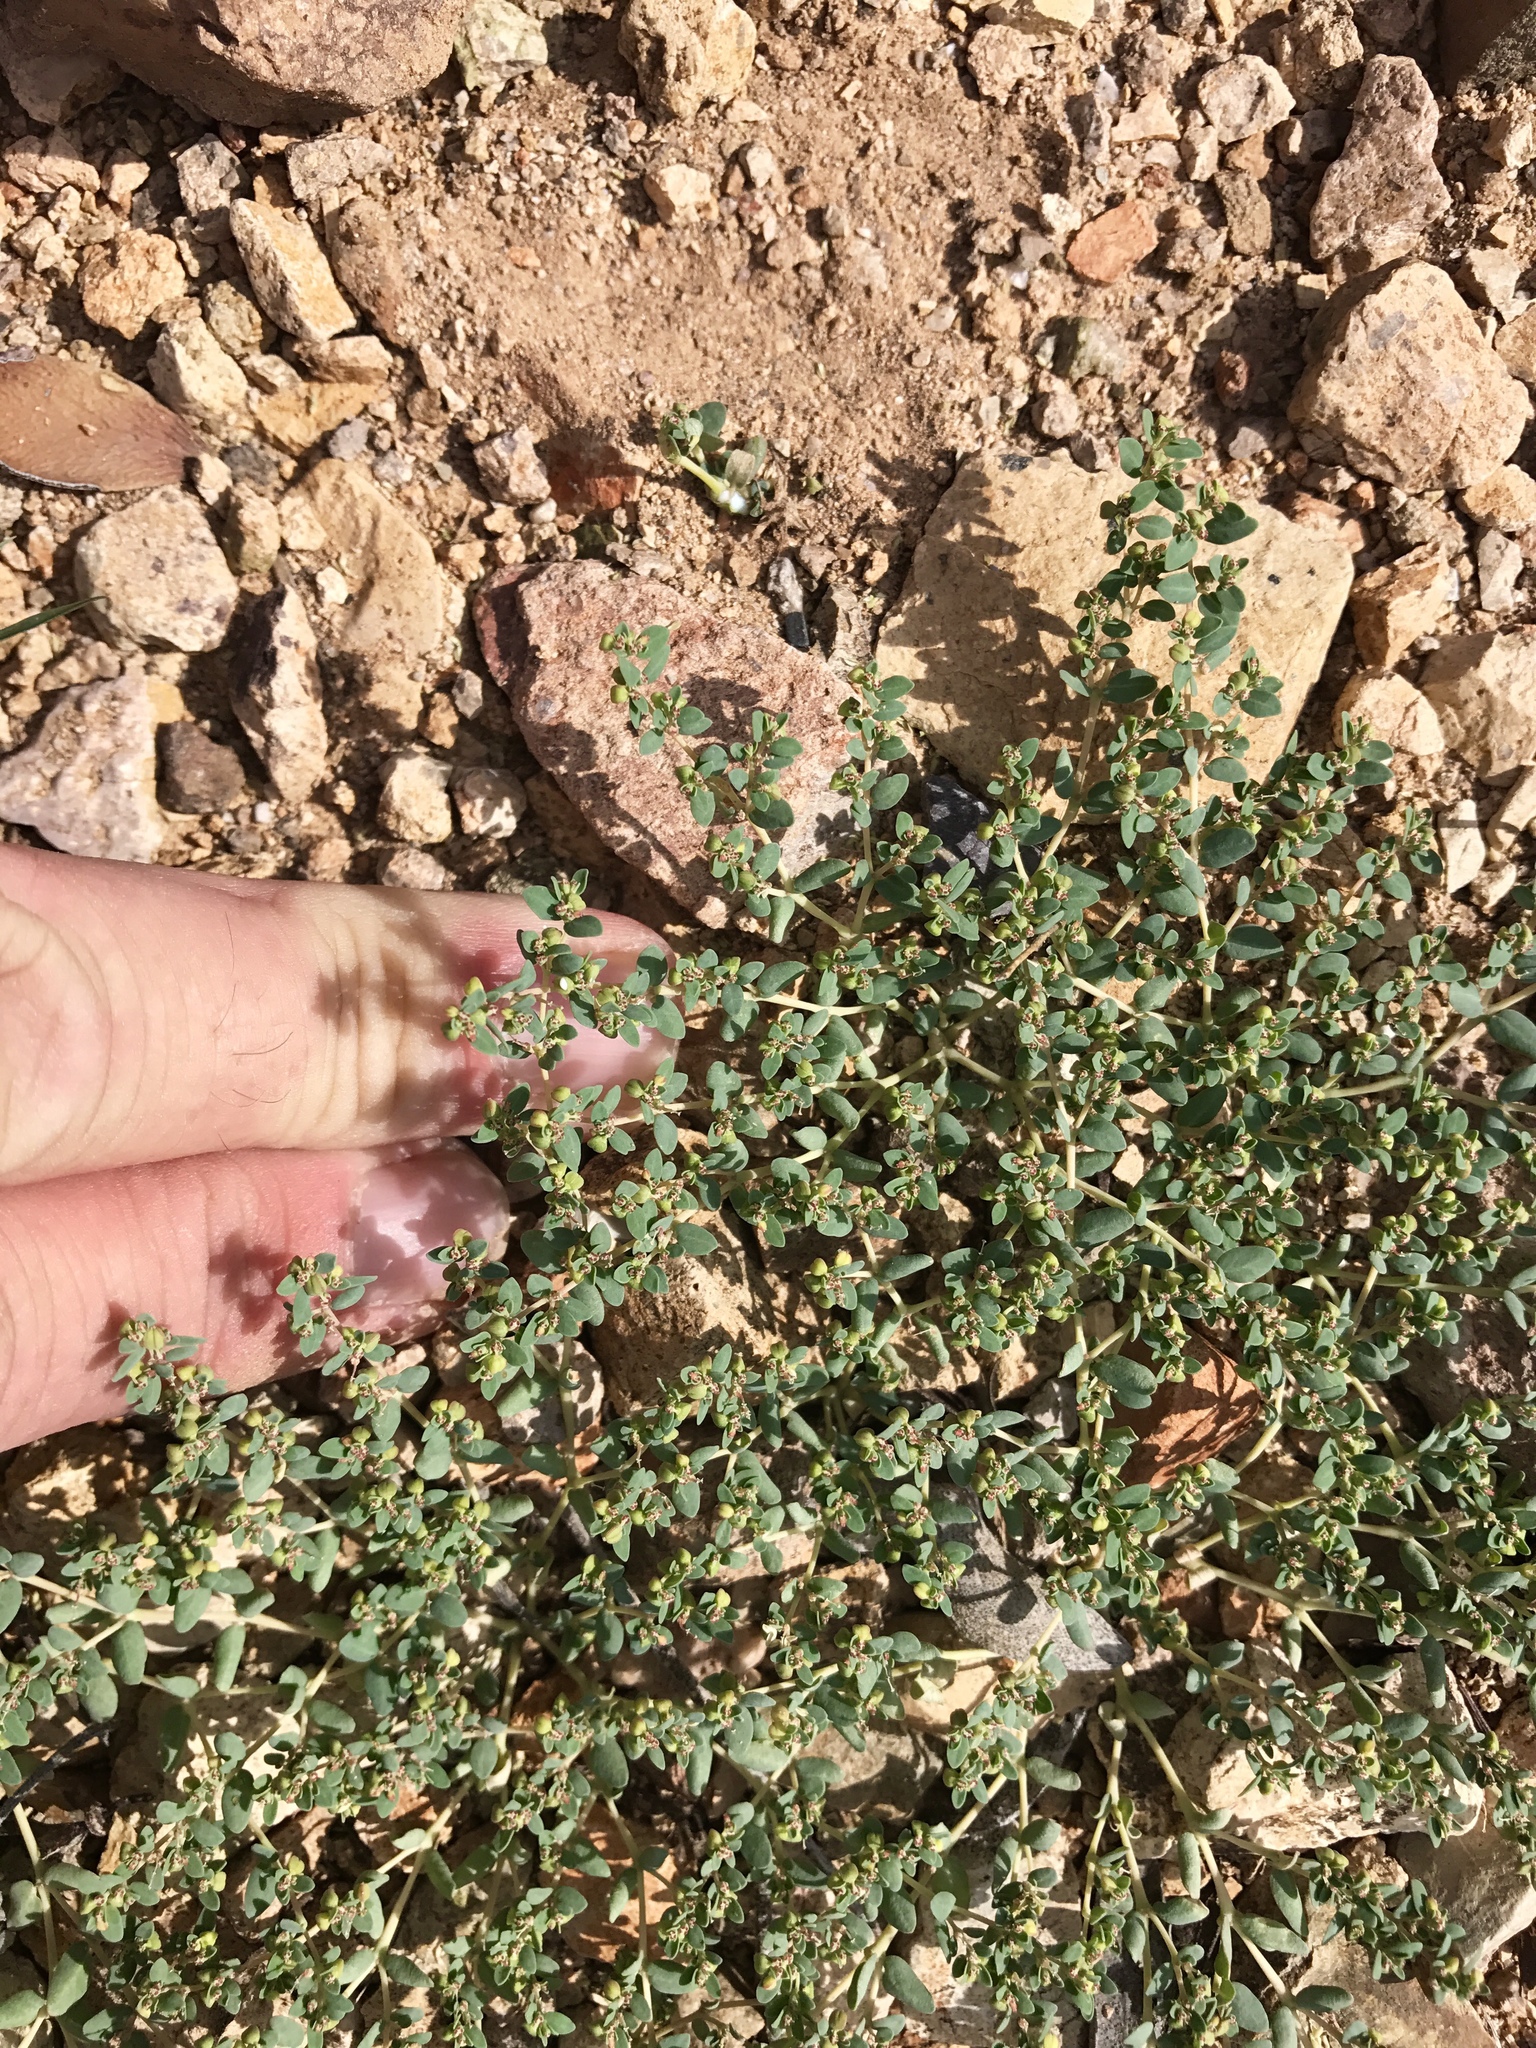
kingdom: Plantae
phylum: Tracheophyta
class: Magnoliopsida
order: Malpighiales
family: Euphorbiaceae
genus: Euphorbia
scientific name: Euphorbia micromera
